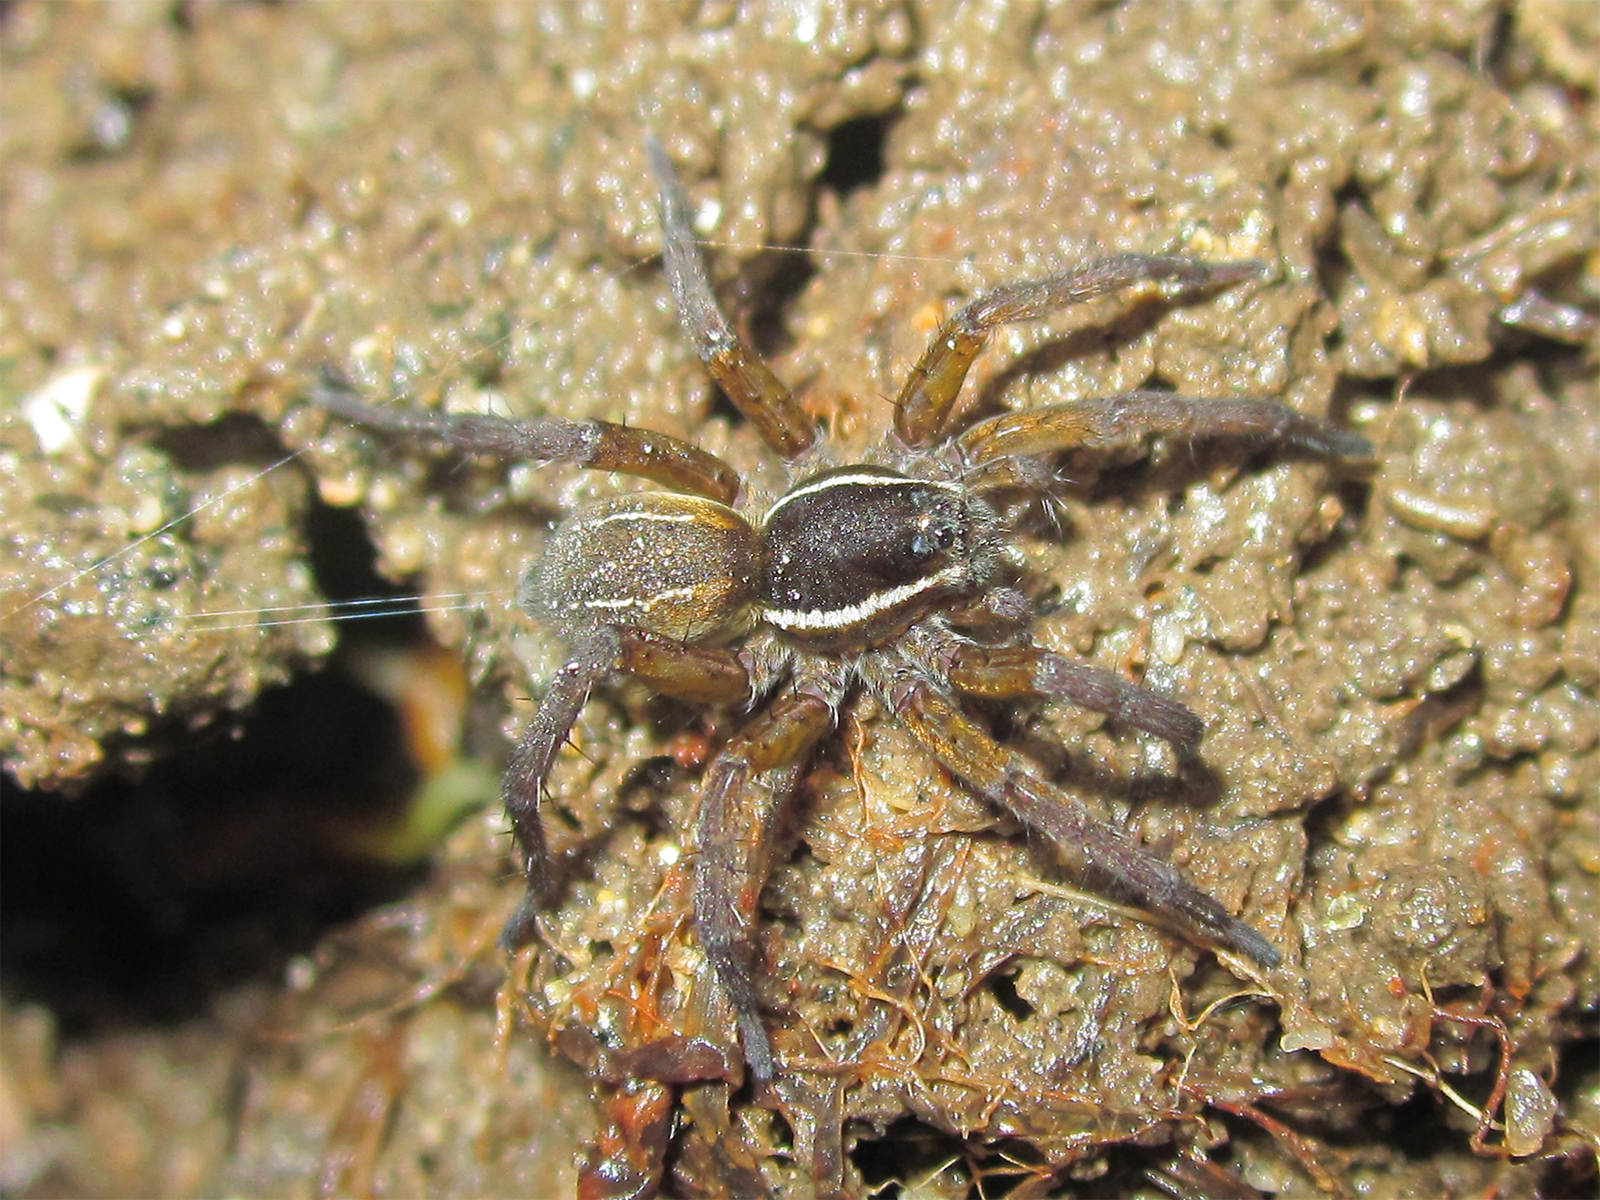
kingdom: Animalia
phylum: Arthropoda
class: Arachnida
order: Araneae
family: Lycosidae
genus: Diapontia
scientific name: Diapontia anfibia
